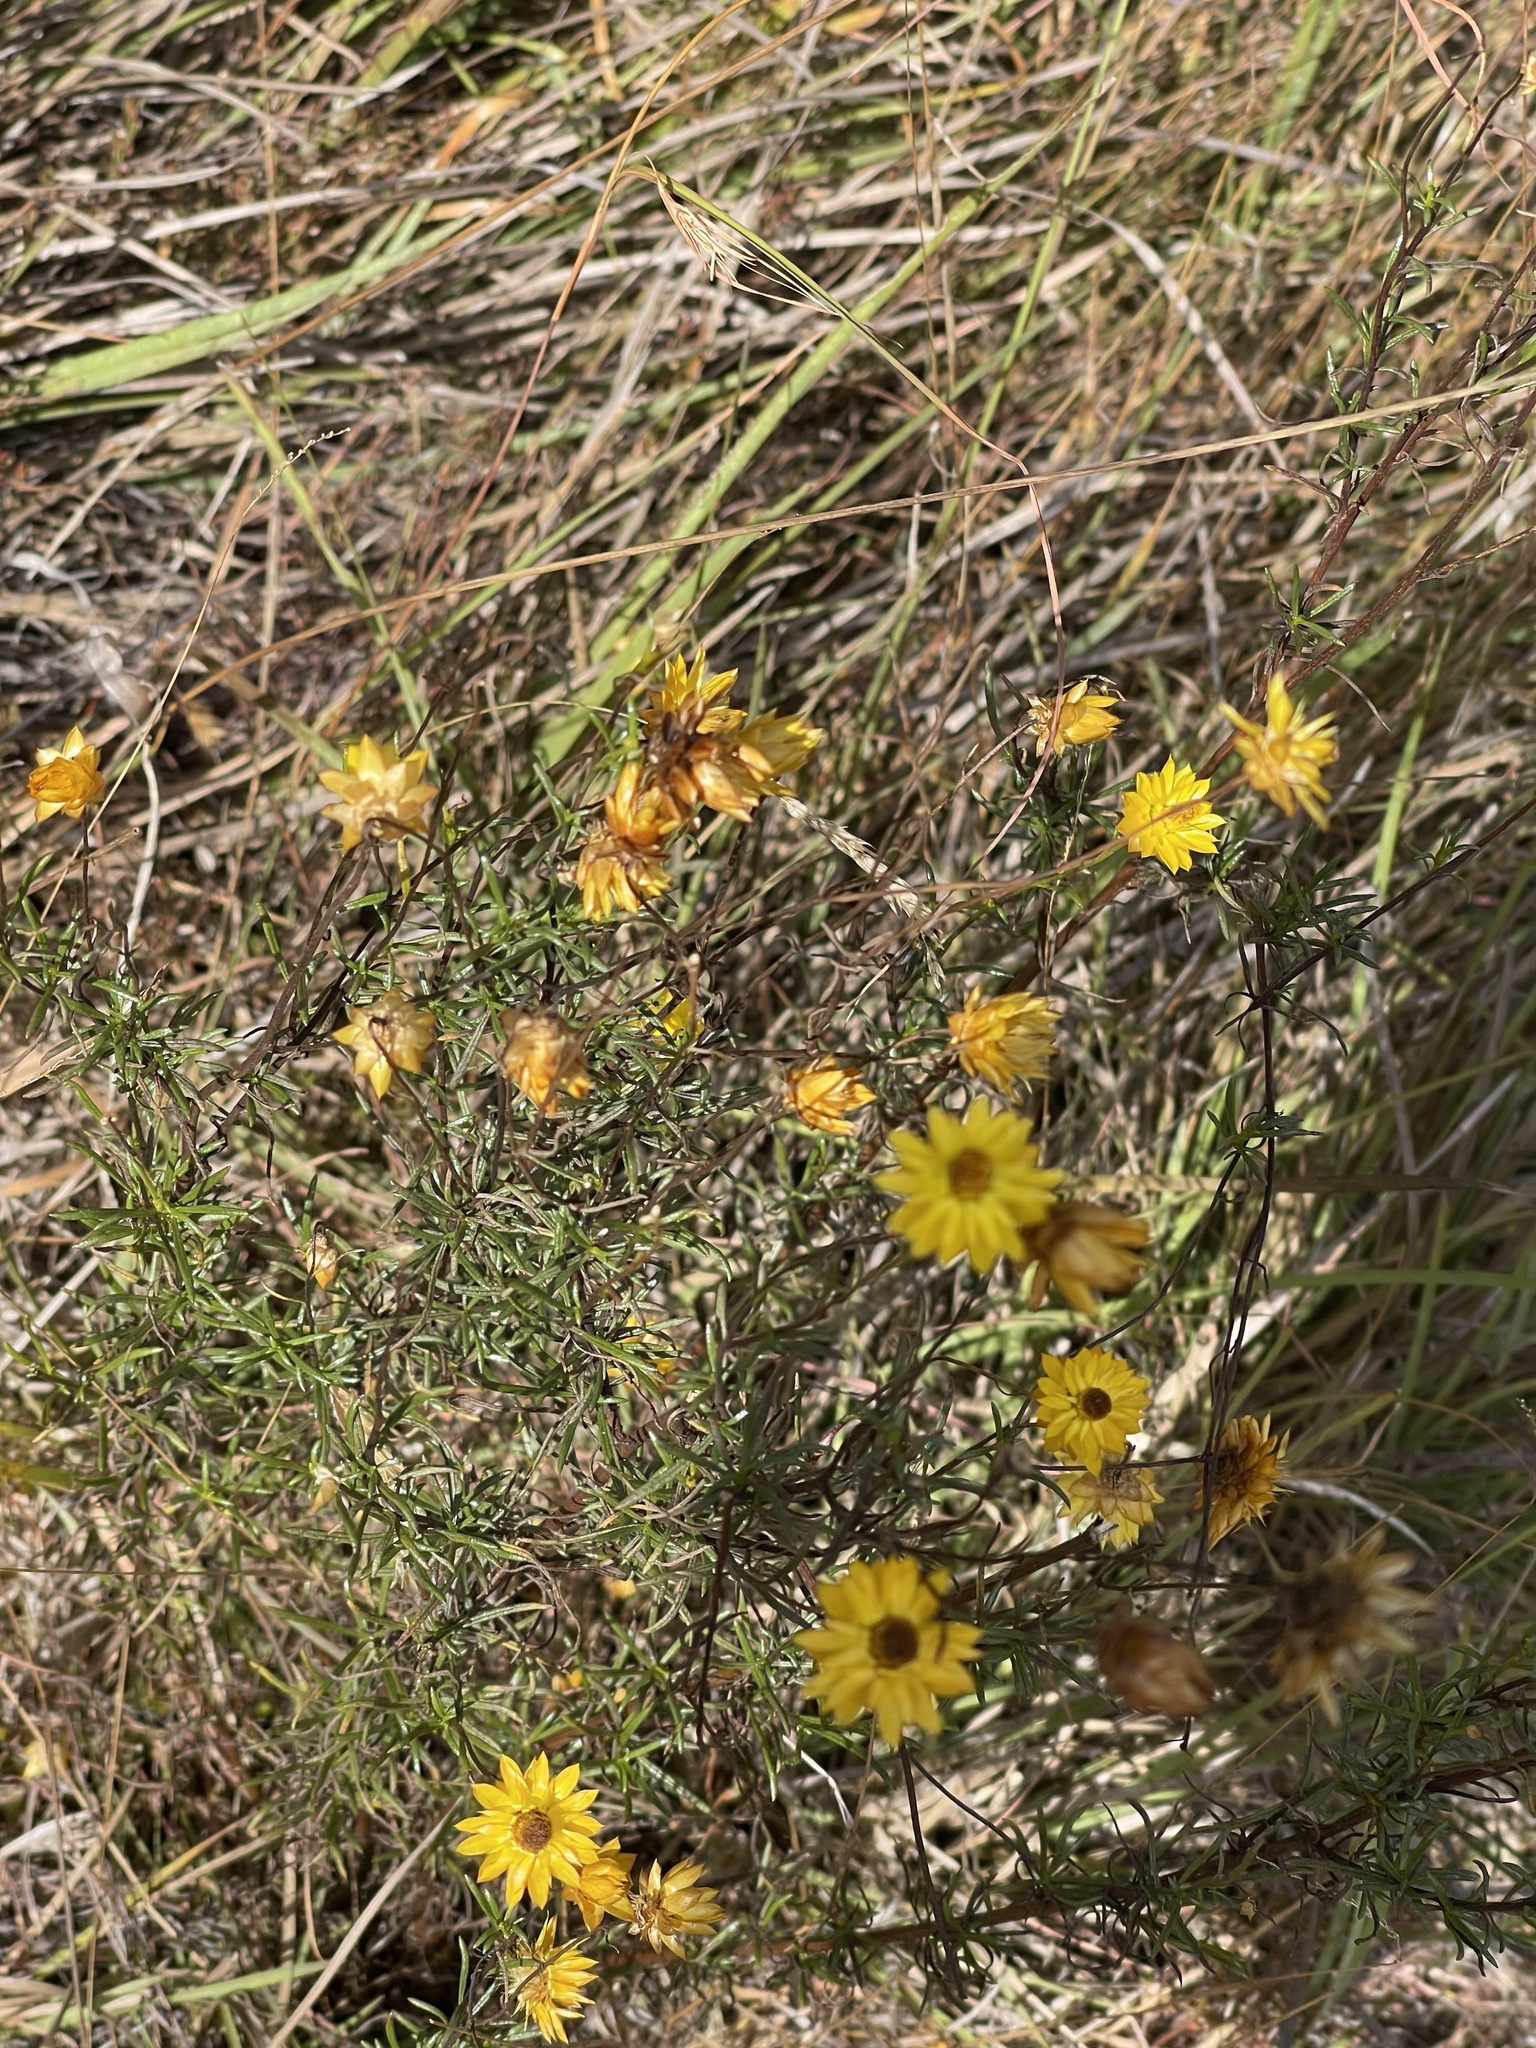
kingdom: Plantae
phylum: Tracheophyta
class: Magnoliopsida
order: Asterales
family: Asteraceae
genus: Xerochrysum
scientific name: Xerochrysum viscosum
